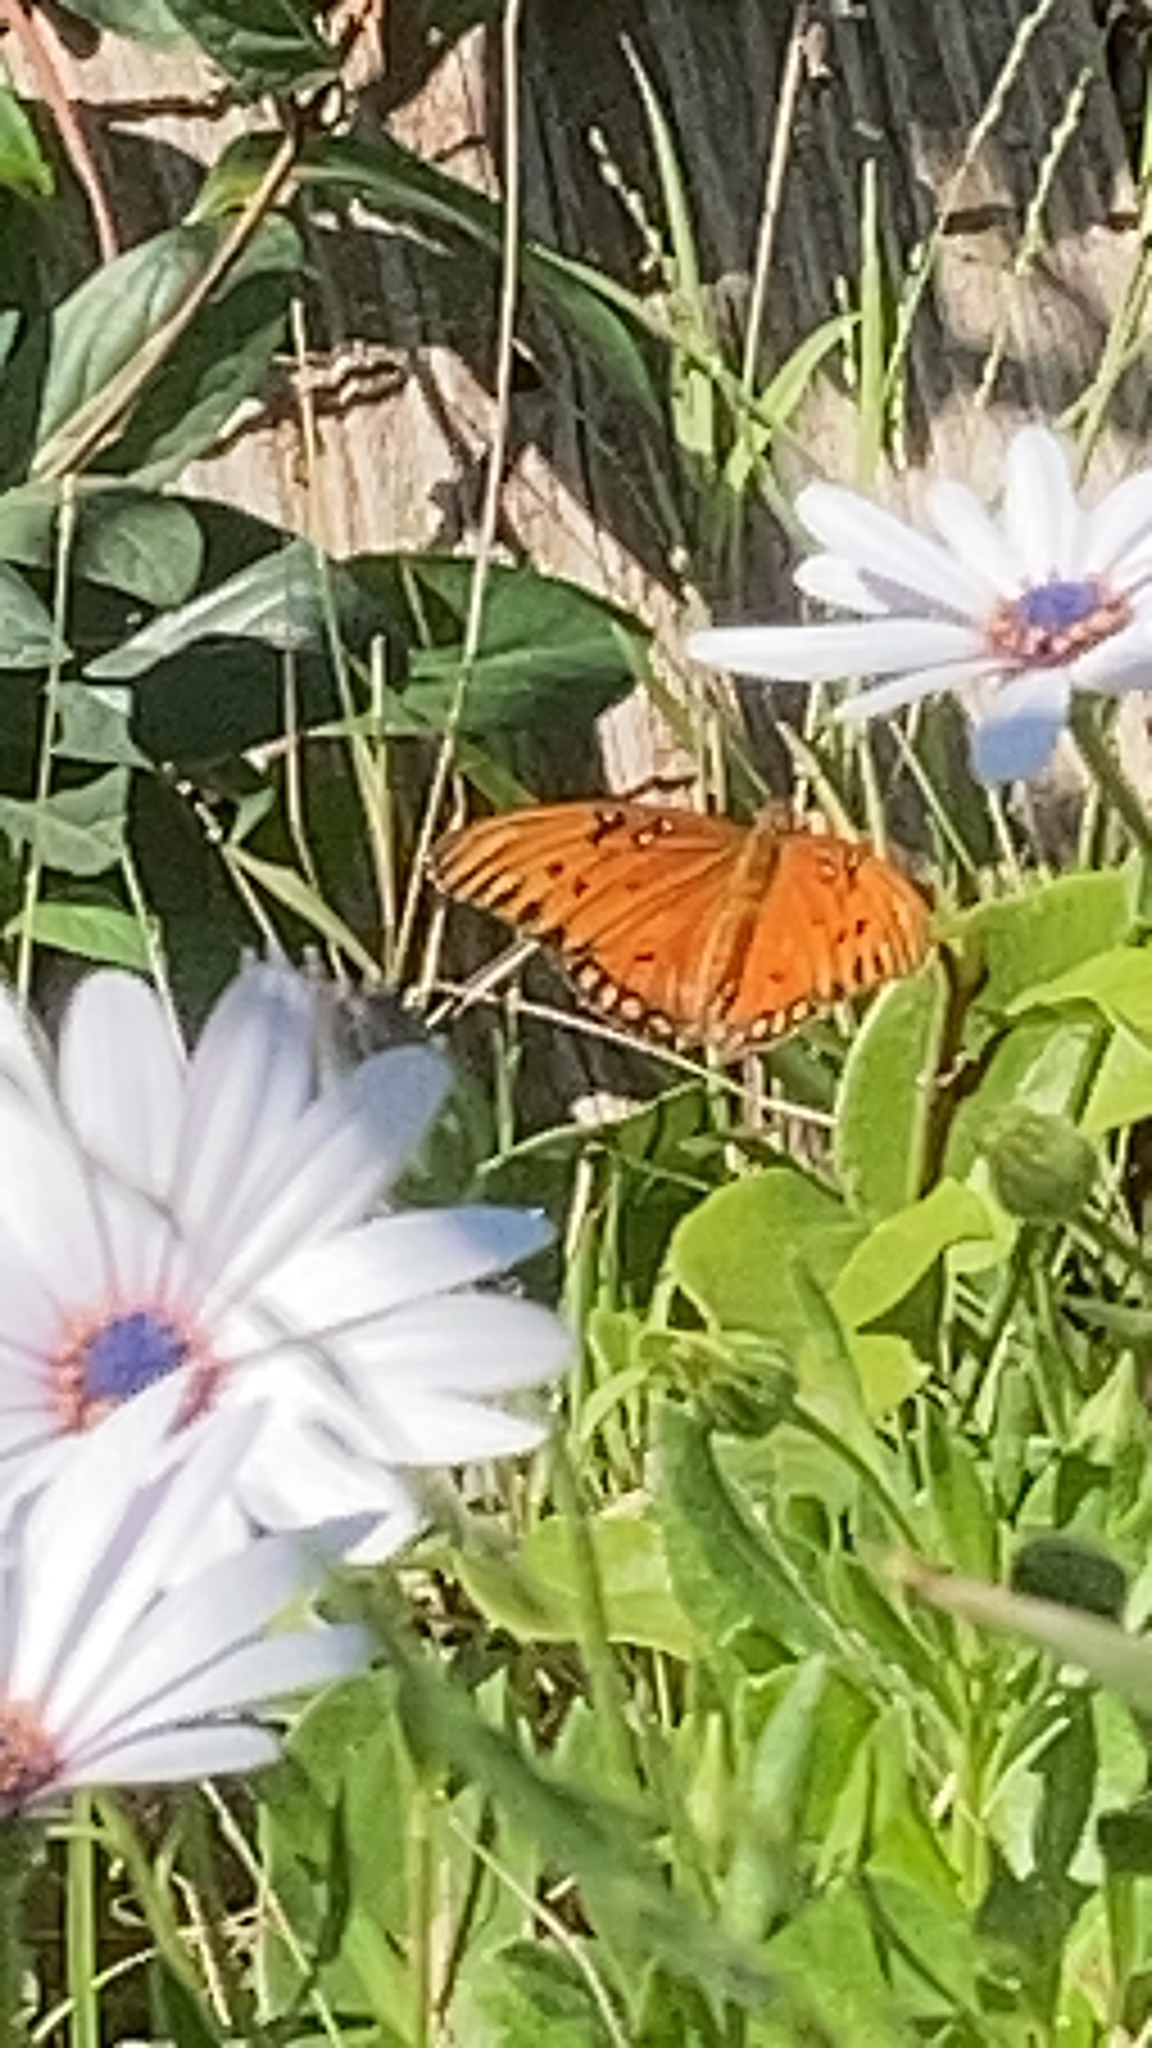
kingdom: Animalia
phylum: Arthropoda
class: Insecta
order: Lepidoptera
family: Nymphalidae
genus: Dione
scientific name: Dione vanillae
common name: Gulf fritillary
